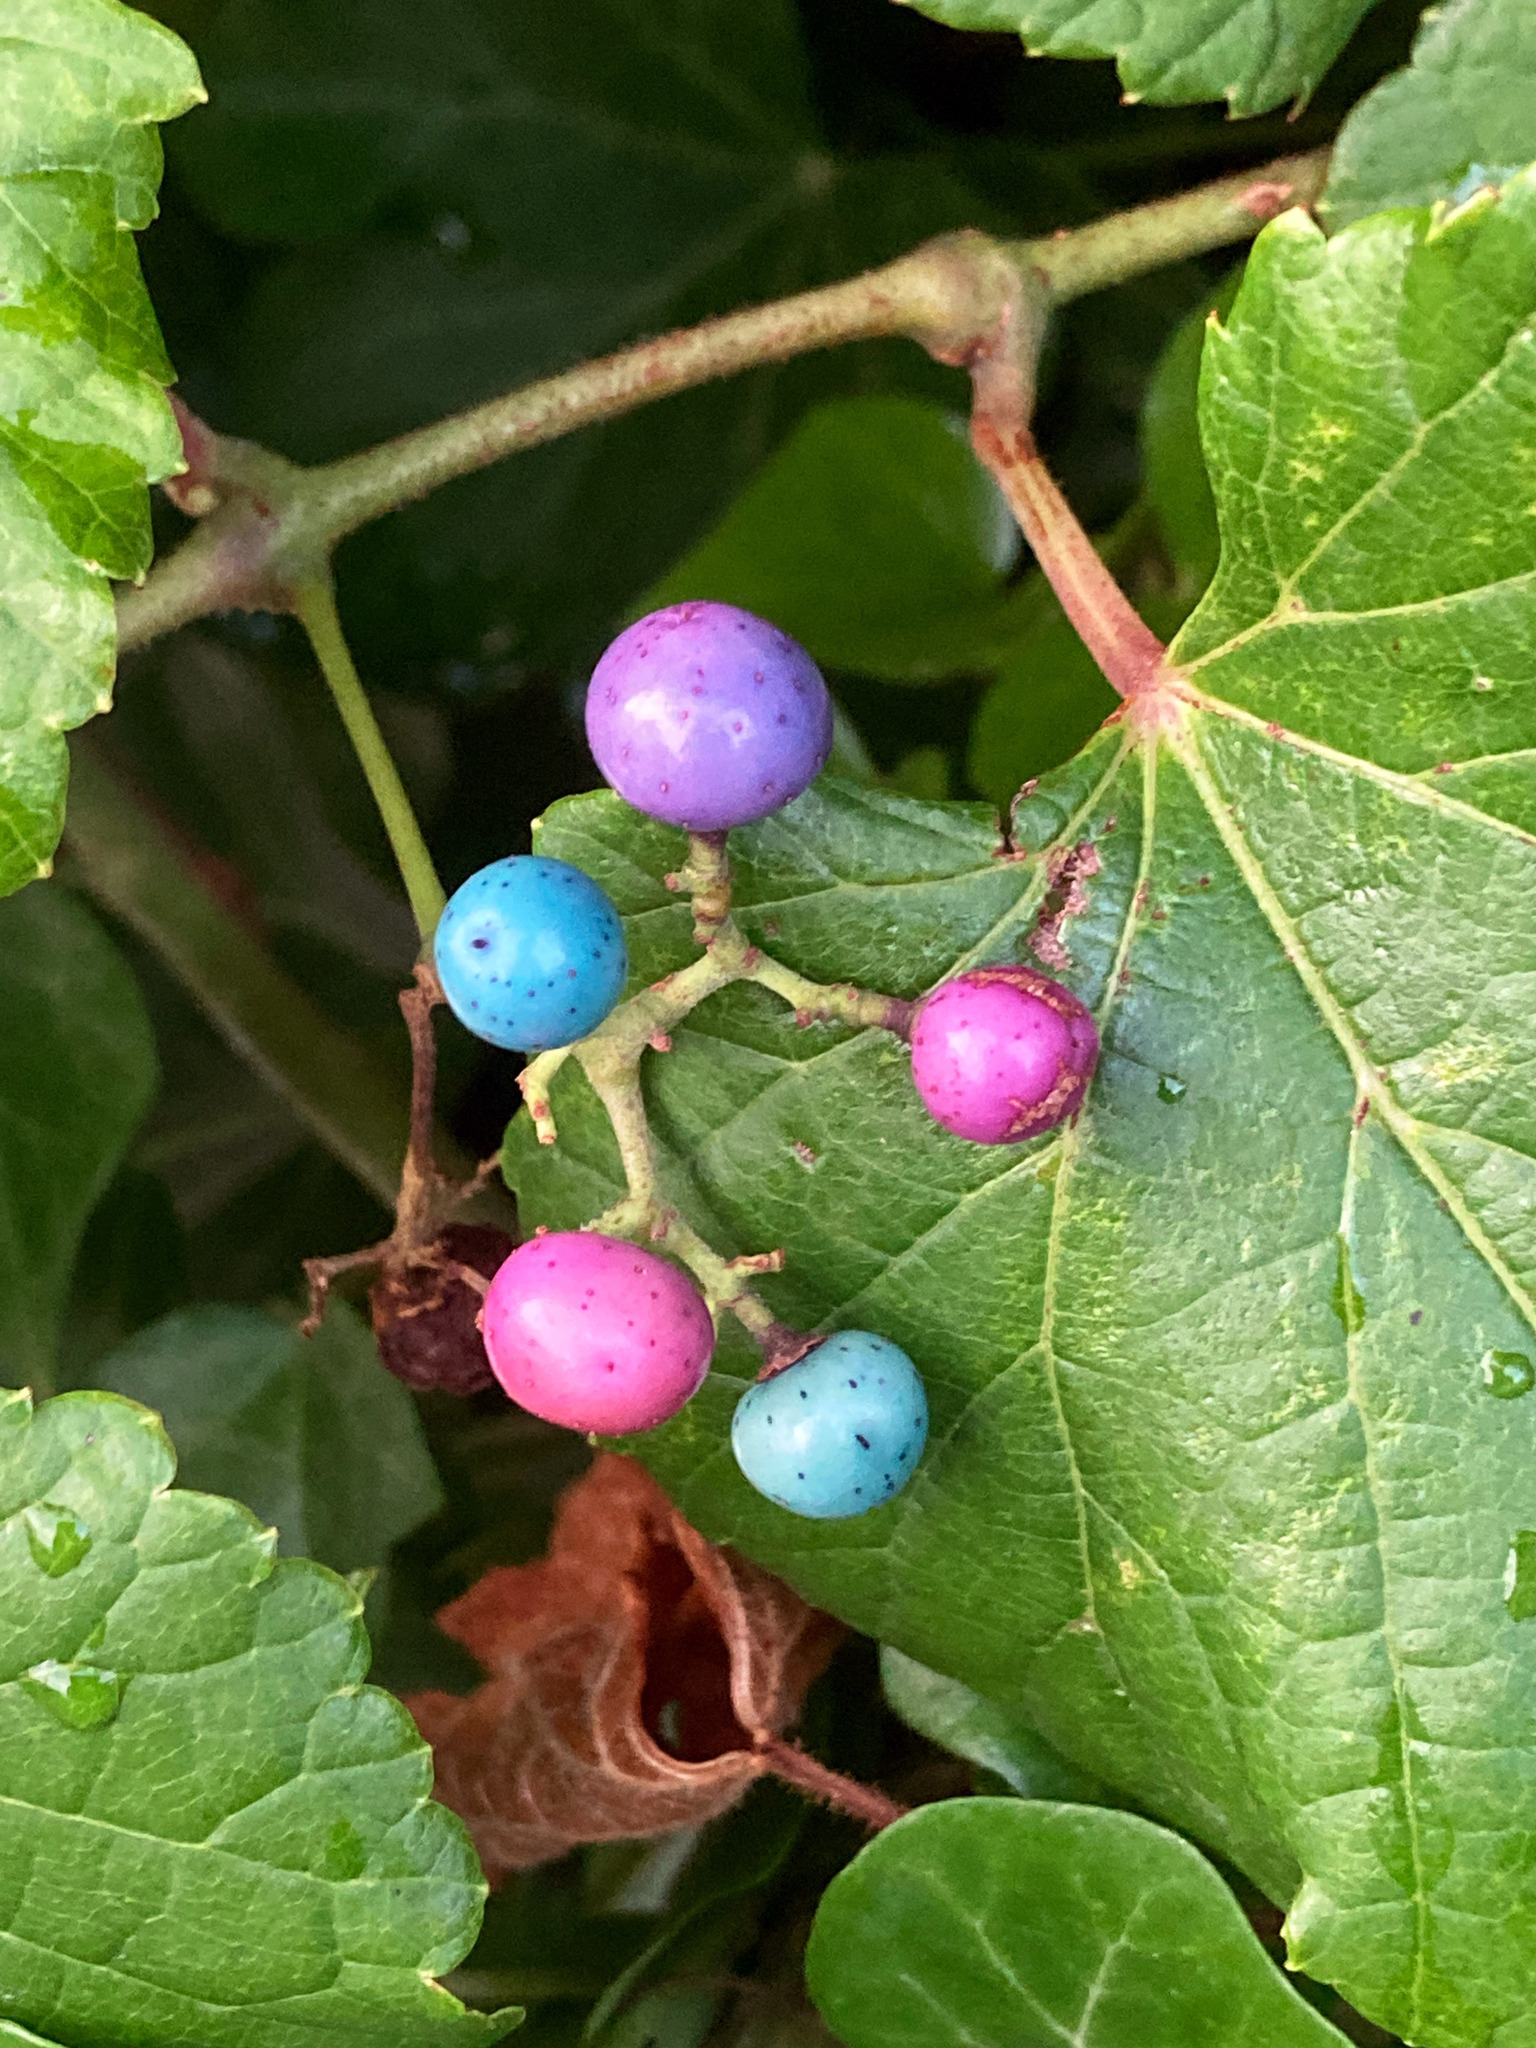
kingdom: Plantae
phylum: Tracheophyta
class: Magnoliopsida
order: Vitales
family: Vitaceae
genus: Ampelopsis
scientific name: Ampelopsis glandulosa
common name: Amur peppervine
